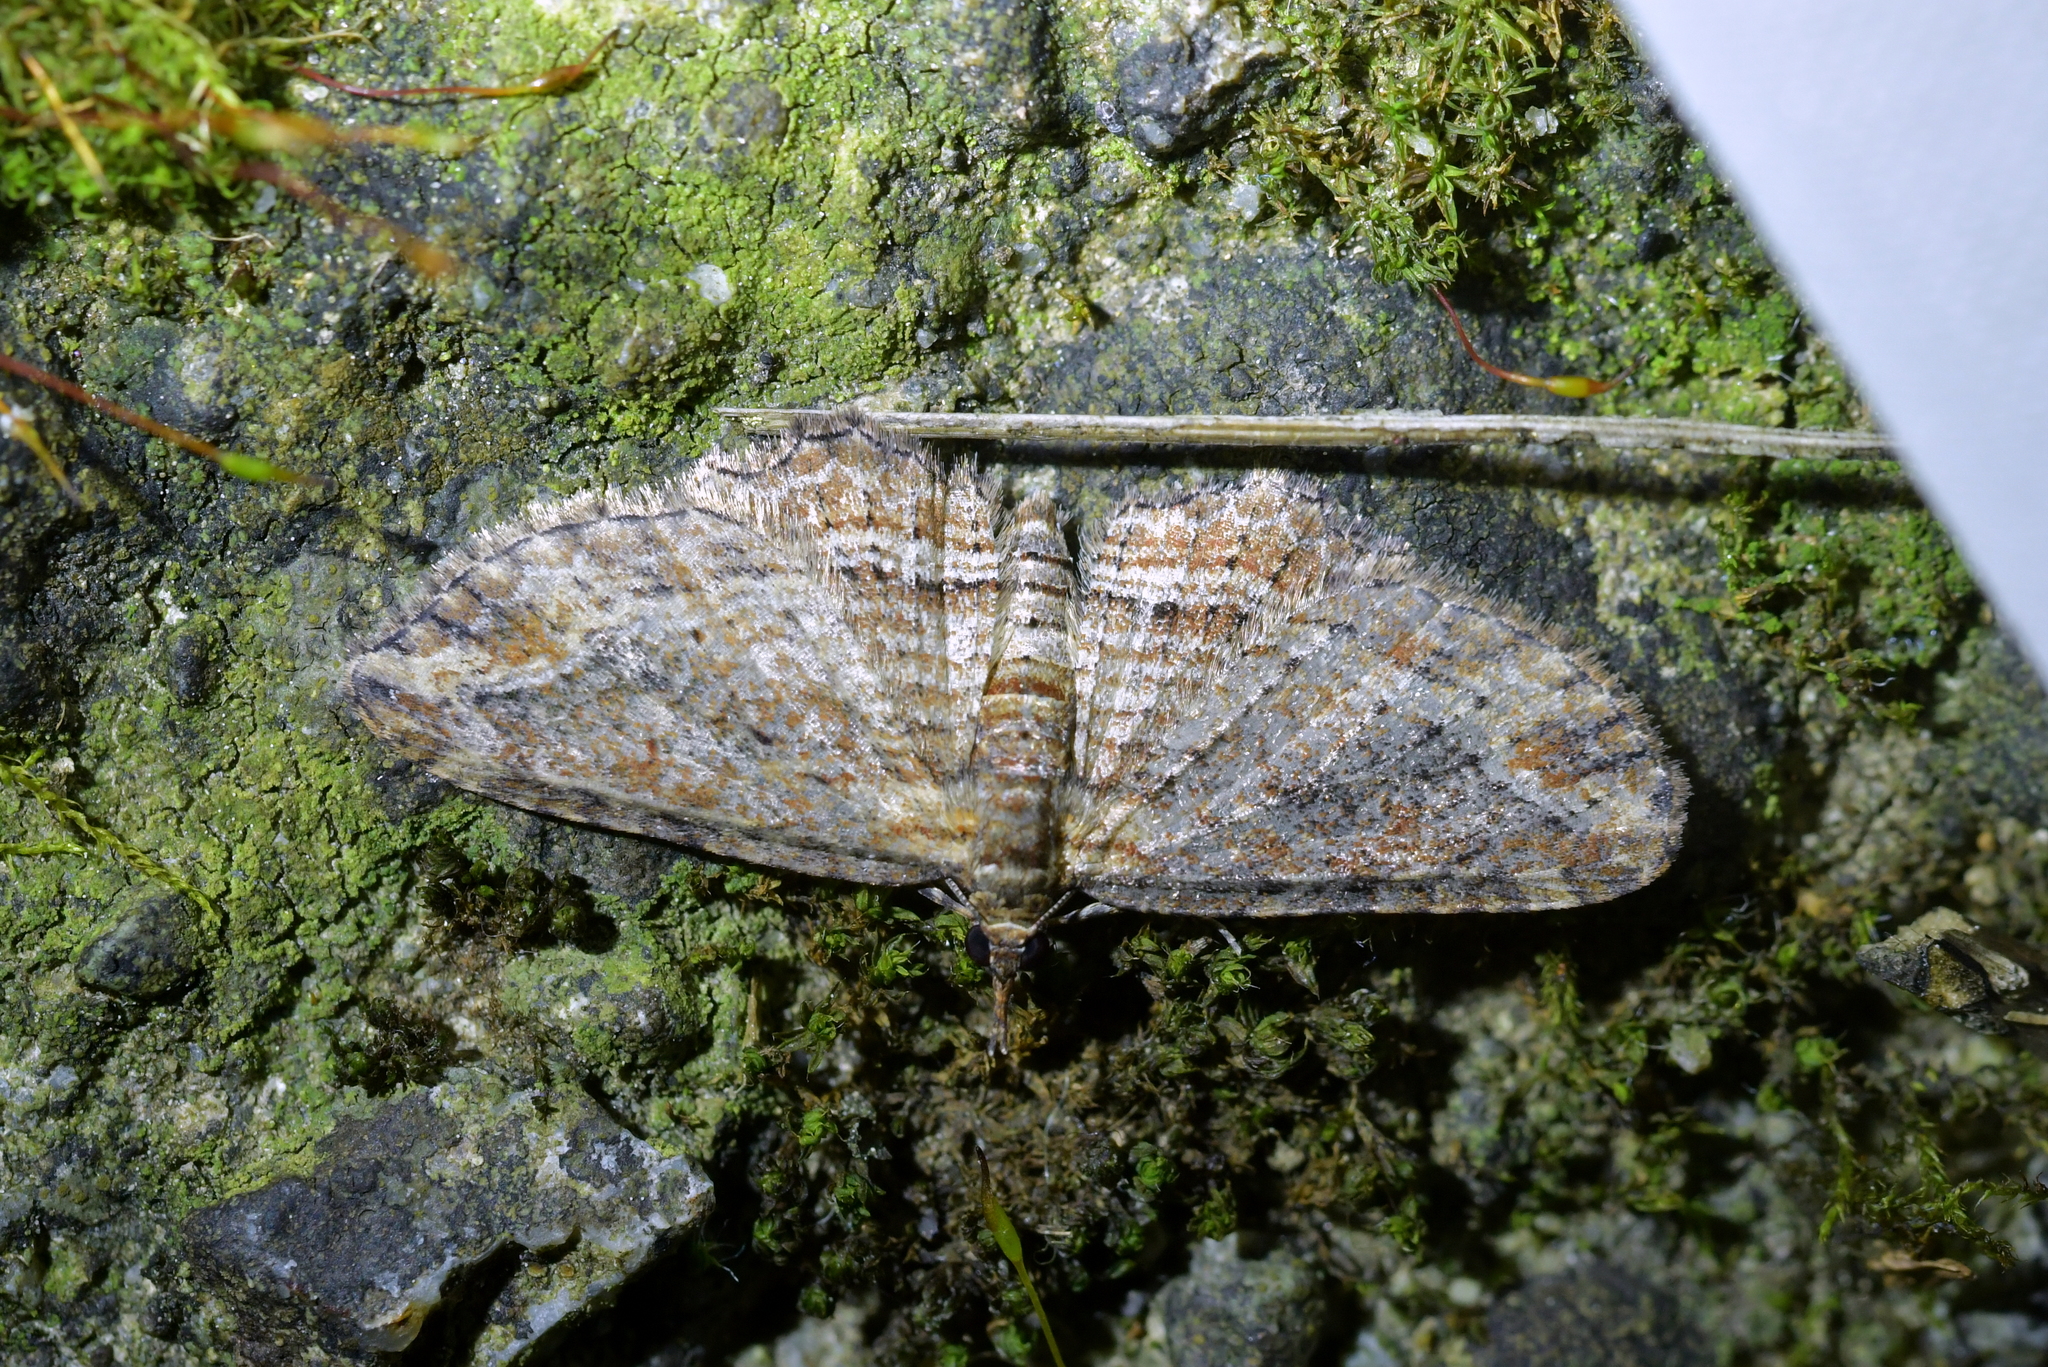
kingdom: Animalia
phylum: Arthropoda
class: Insecta
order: Lepidoptera
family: Geometridae
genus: Chloroclystis
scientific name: Chloroclystis filata
